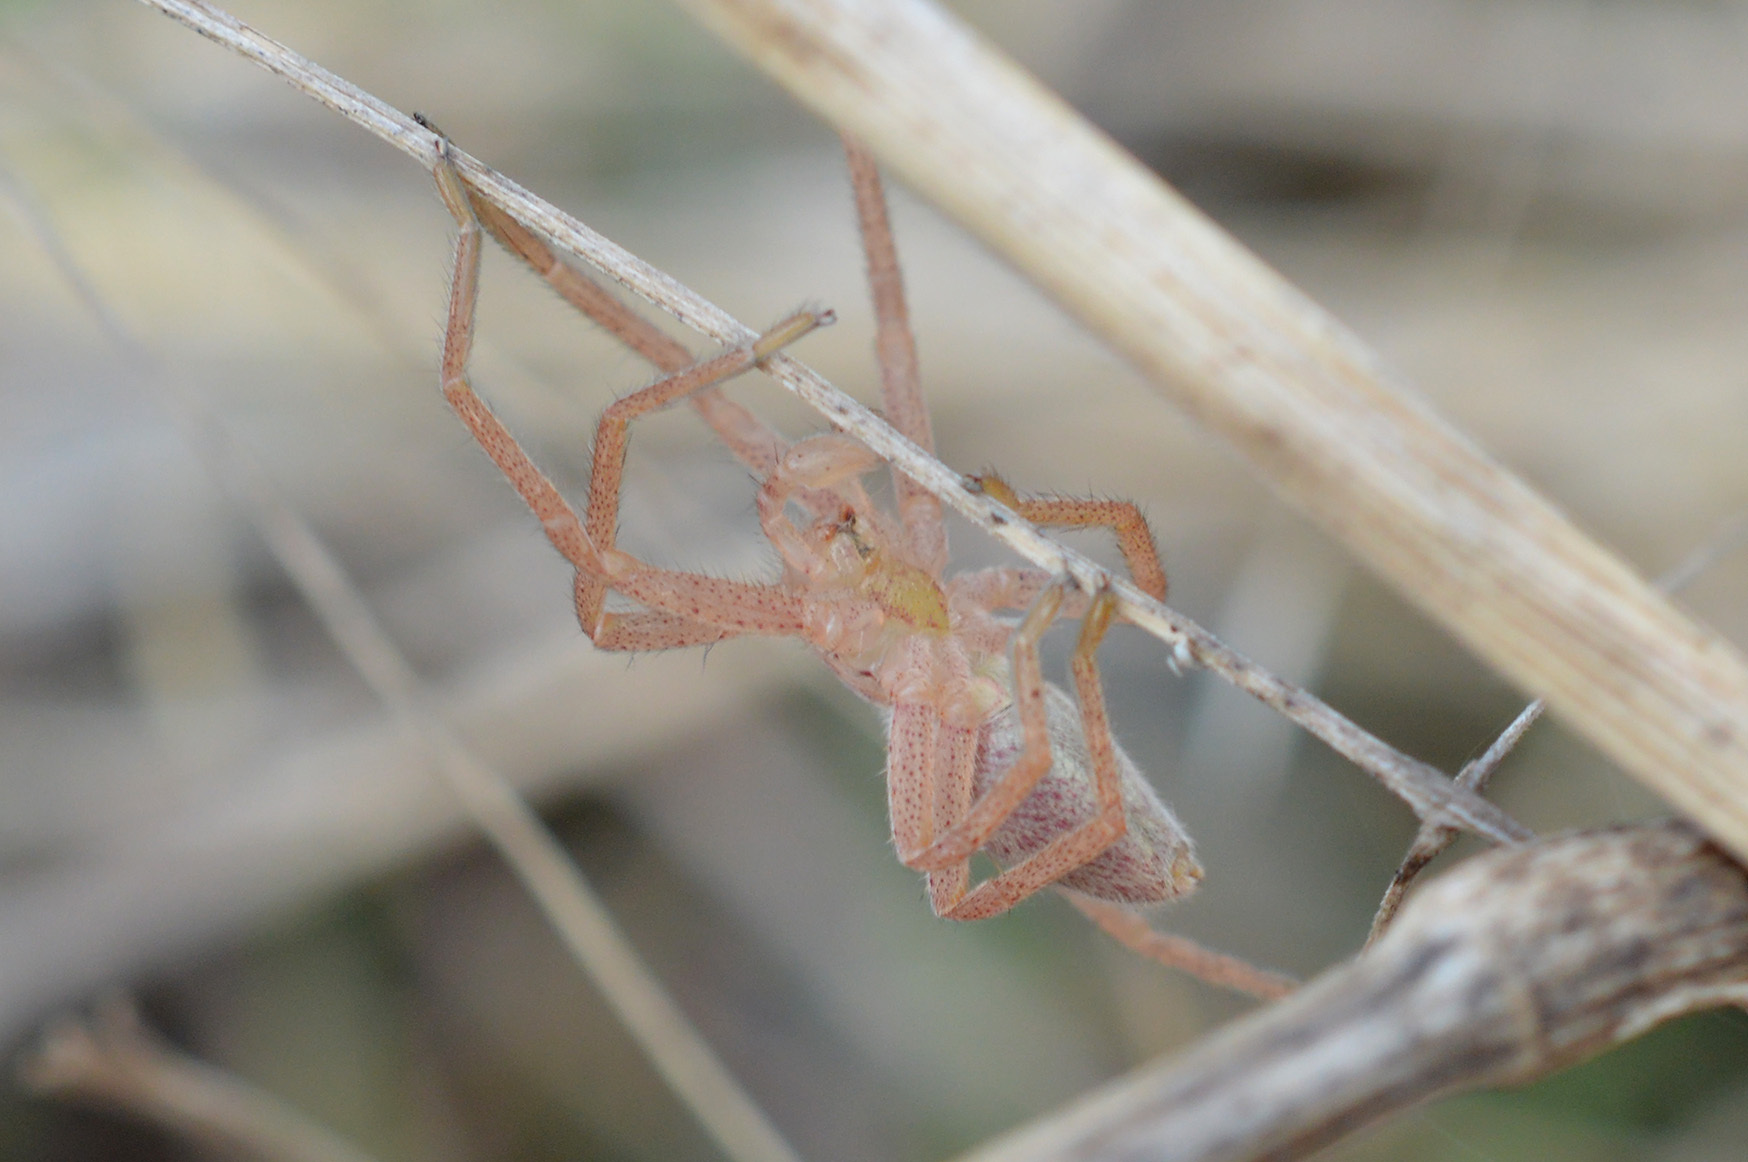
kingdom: Animalia
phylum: Arthropoda
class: Arachnida
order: Araneae
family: Sparassidae
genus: Micrommata
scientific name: Micrommata virescens
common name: Green spider
